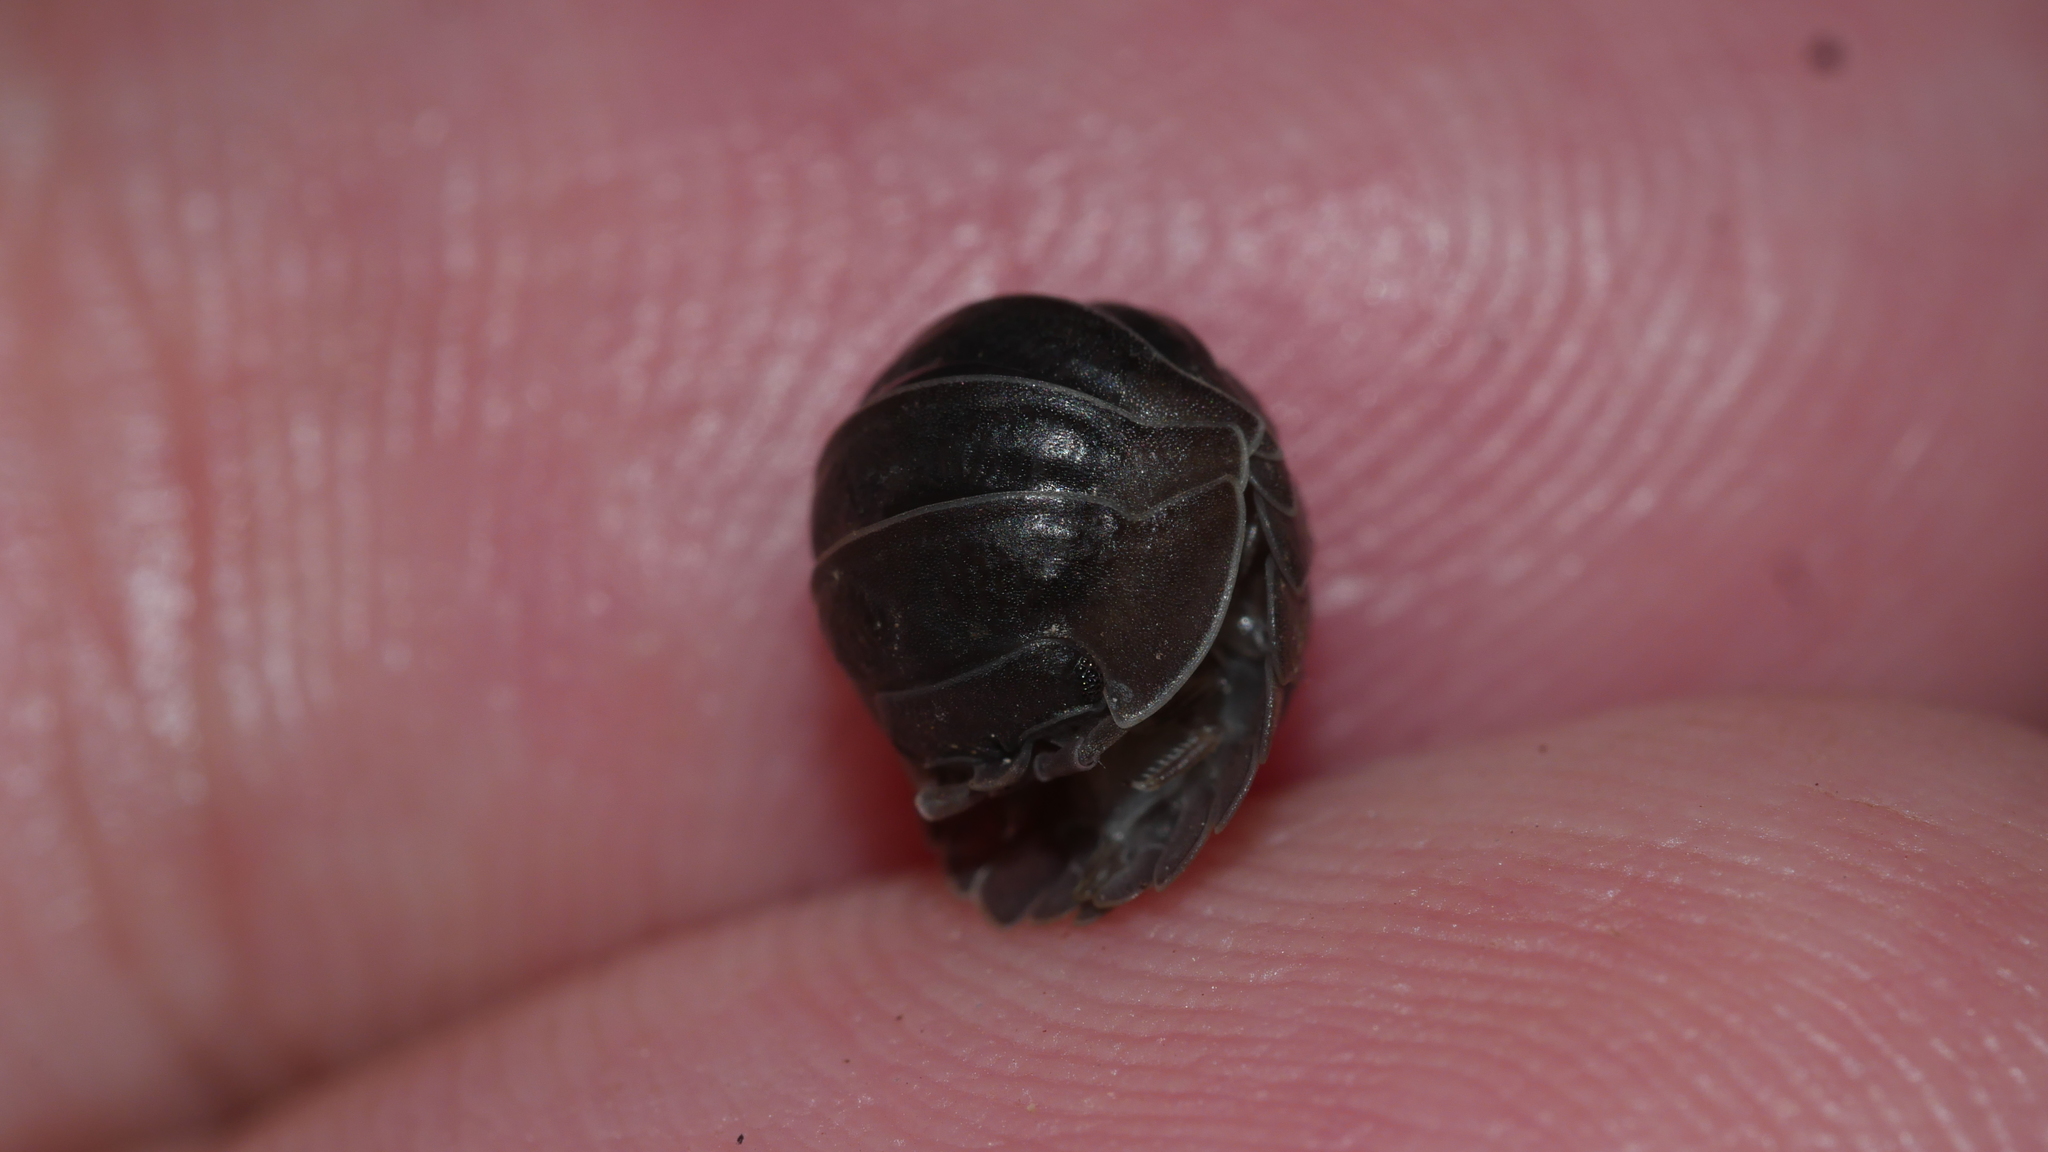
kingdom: Animalia
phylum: Arthropoda
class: Malacostraca
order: Isopoda
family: Armadillidiidae
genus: Armadillidium
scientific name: Armadillidium nasatum
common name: Isopod
